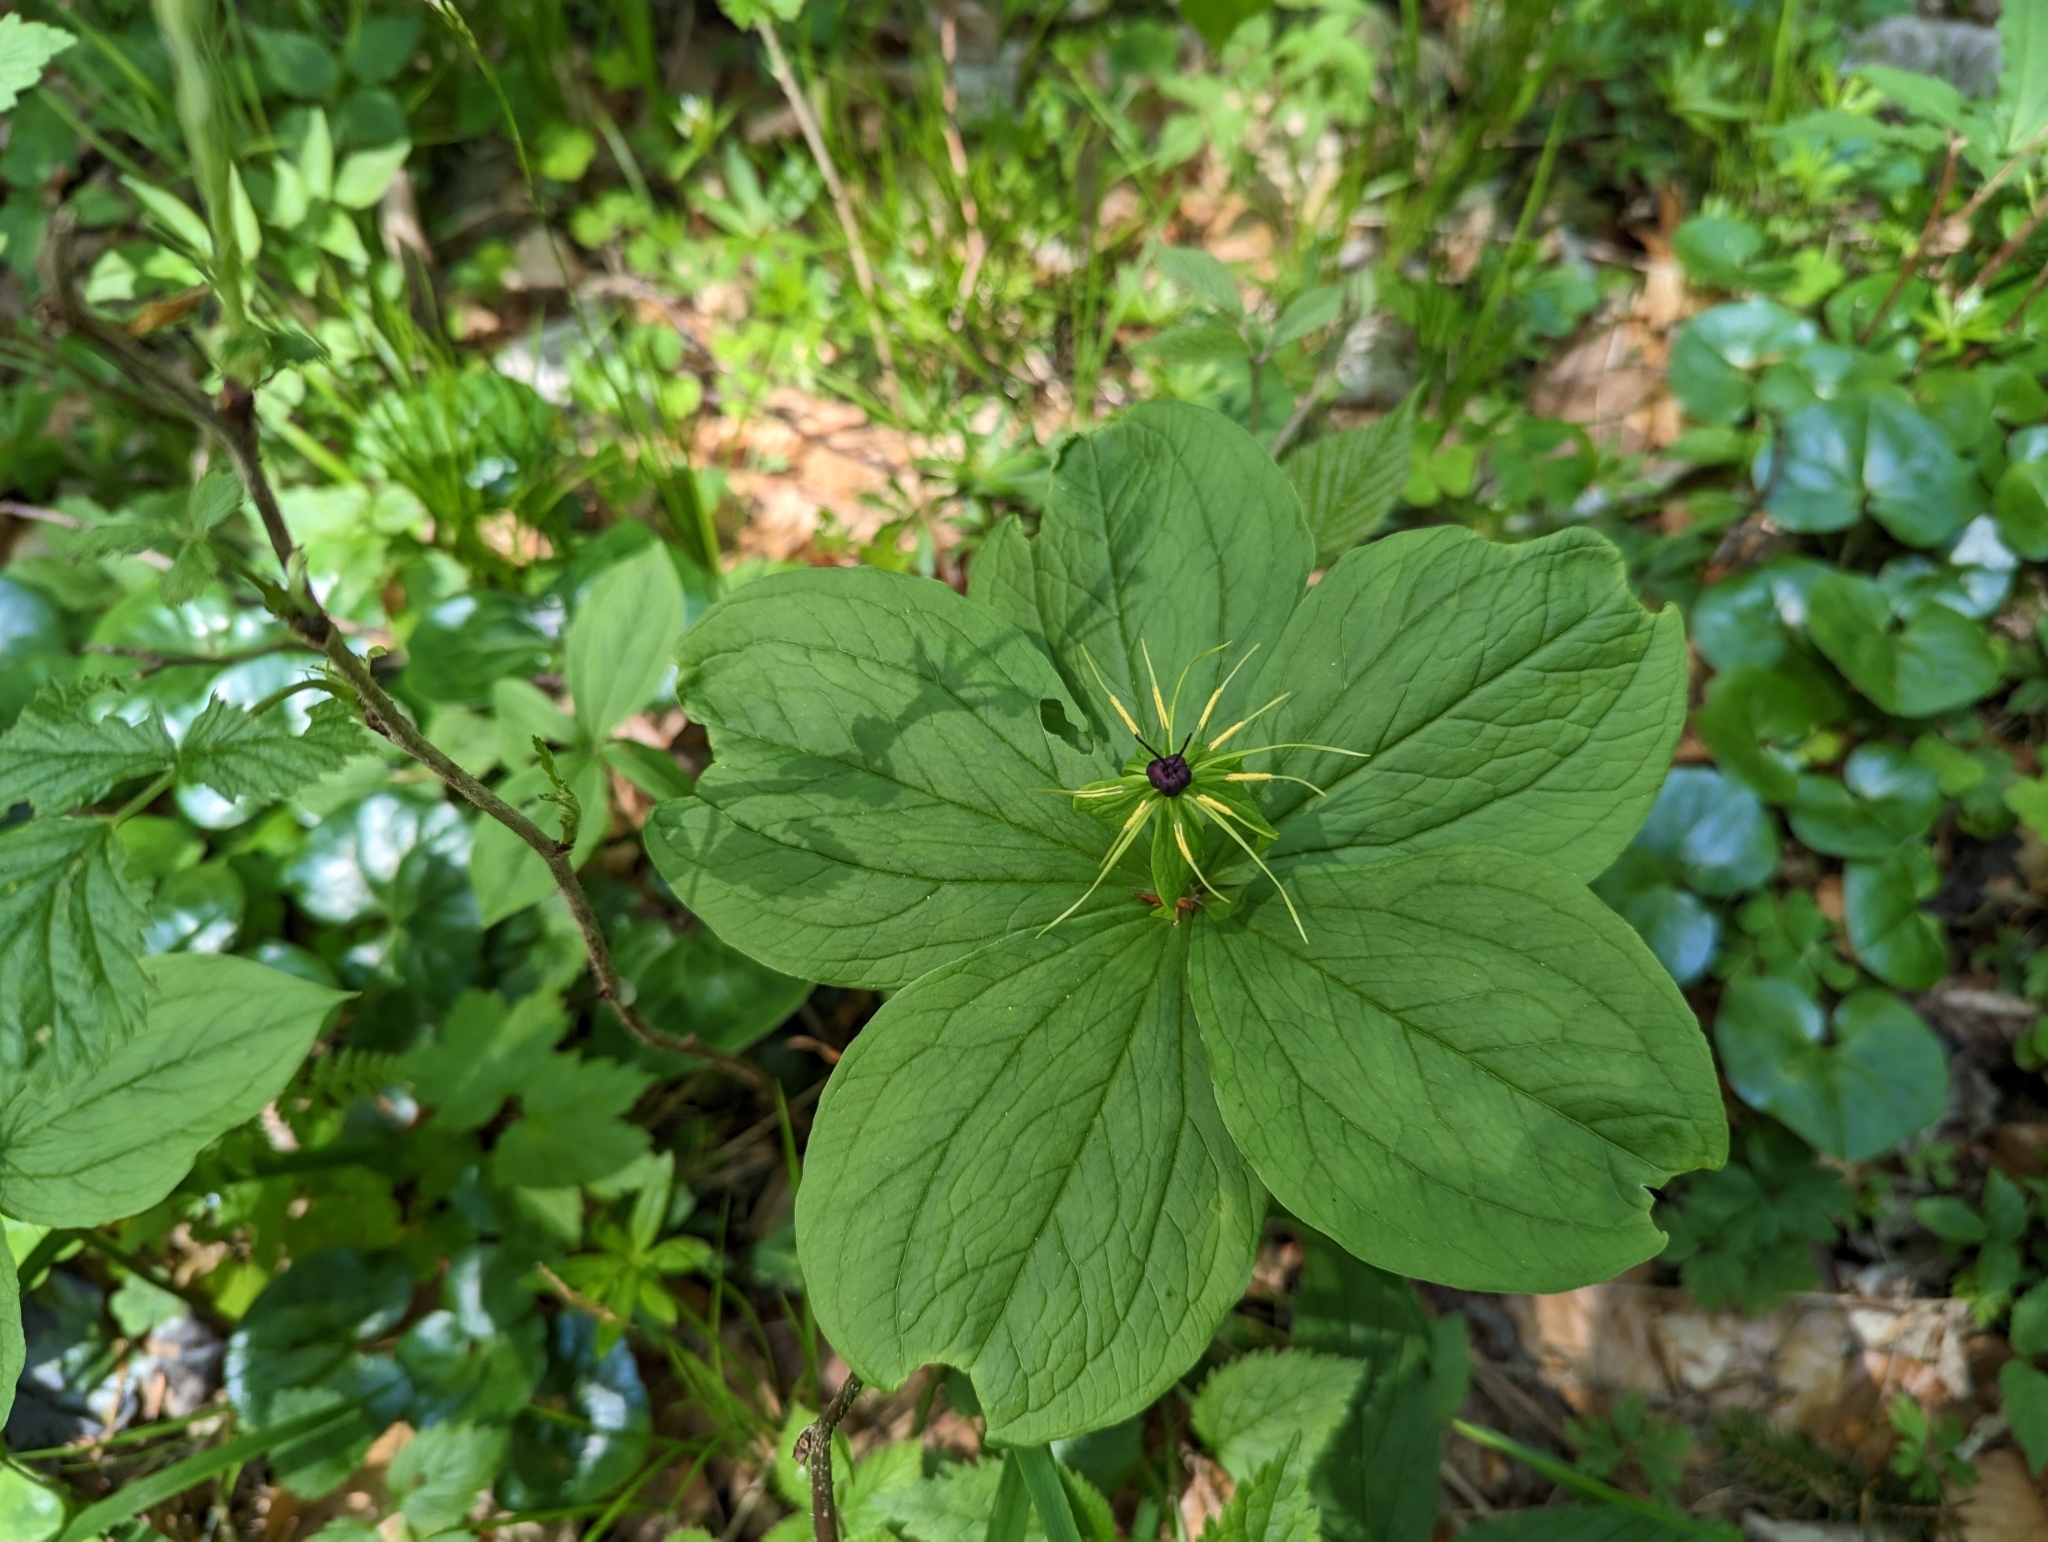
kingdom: Plantae
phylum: Tracheophyta
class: Liliopsida
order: Liliales
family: Melanthiaceae
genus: Paris
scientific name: Paris quadrifolia
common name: Herb-paris
